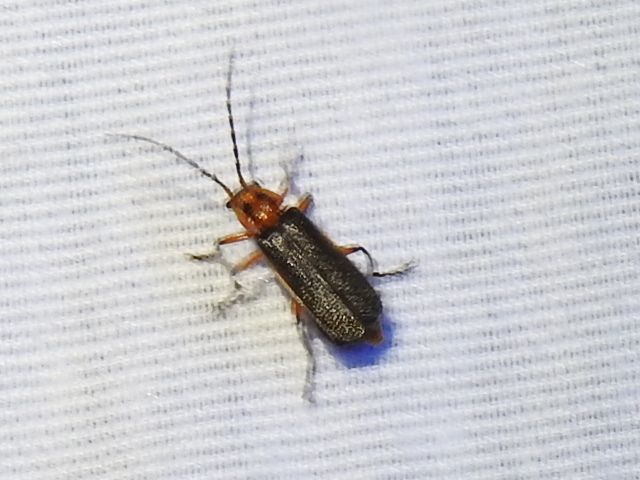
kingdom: Animalia
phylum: Arthropoda
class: Insecta
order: Coleoptera
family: Cantharidae
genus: Atalantycha
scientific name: Atalantycha bilineata
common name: Two-lined leatherwing
